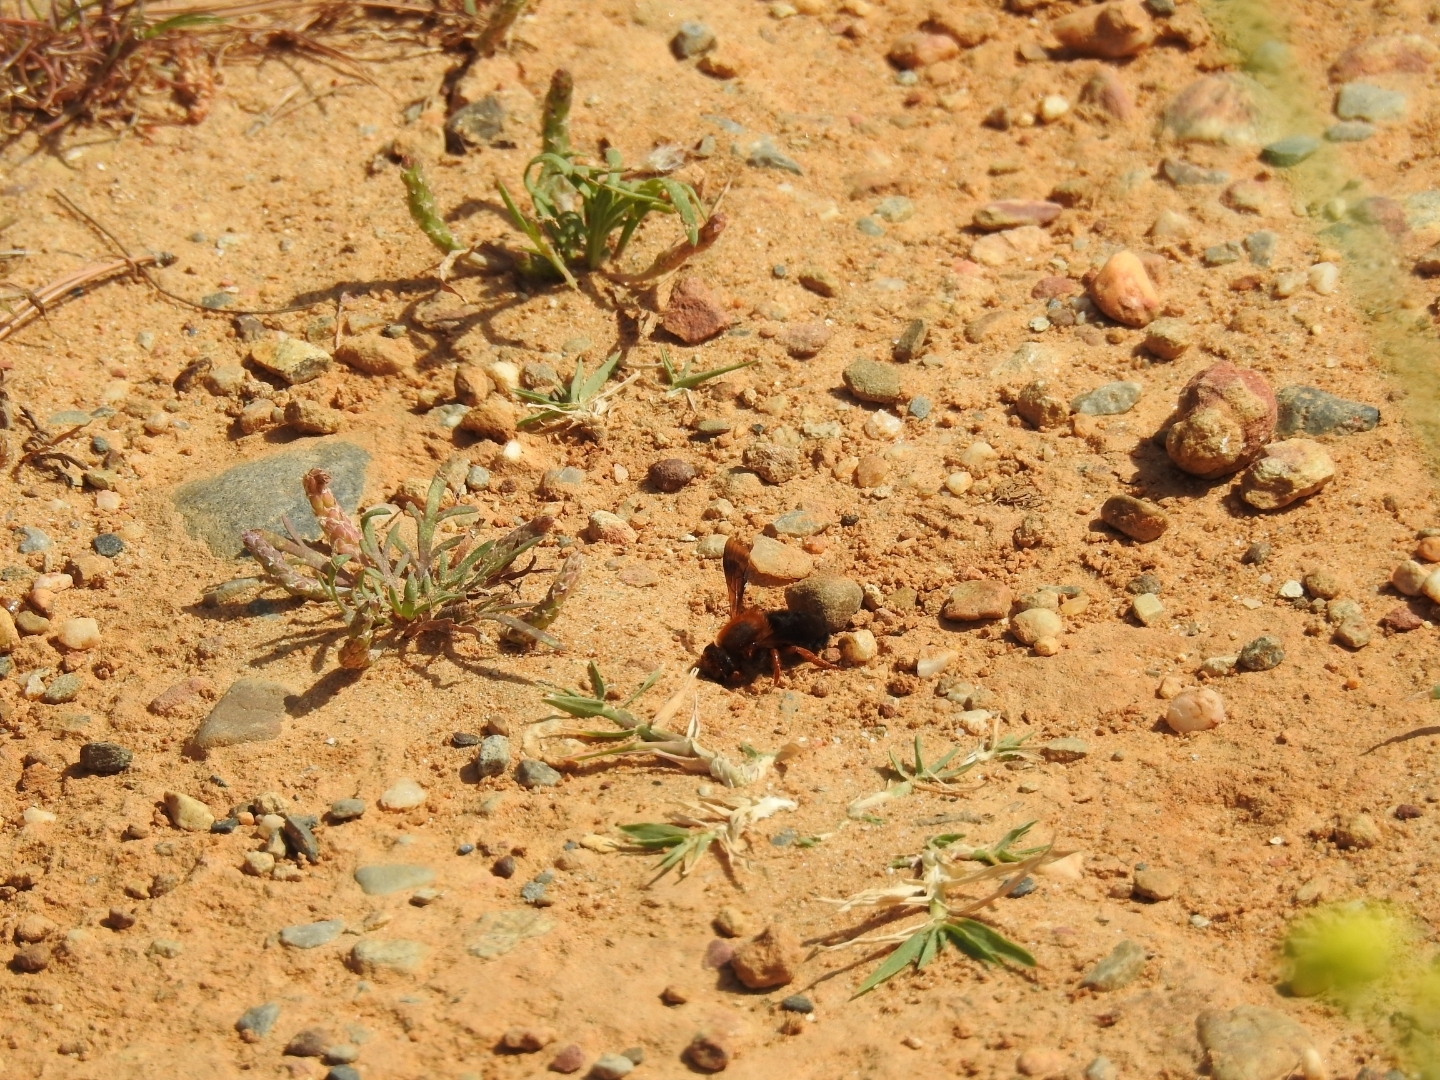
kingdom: Animalia
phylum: Arthropoda
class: Insecta
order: Hymenoptera
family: Megachilidae
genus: Megachile
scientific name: Megachile sicula
